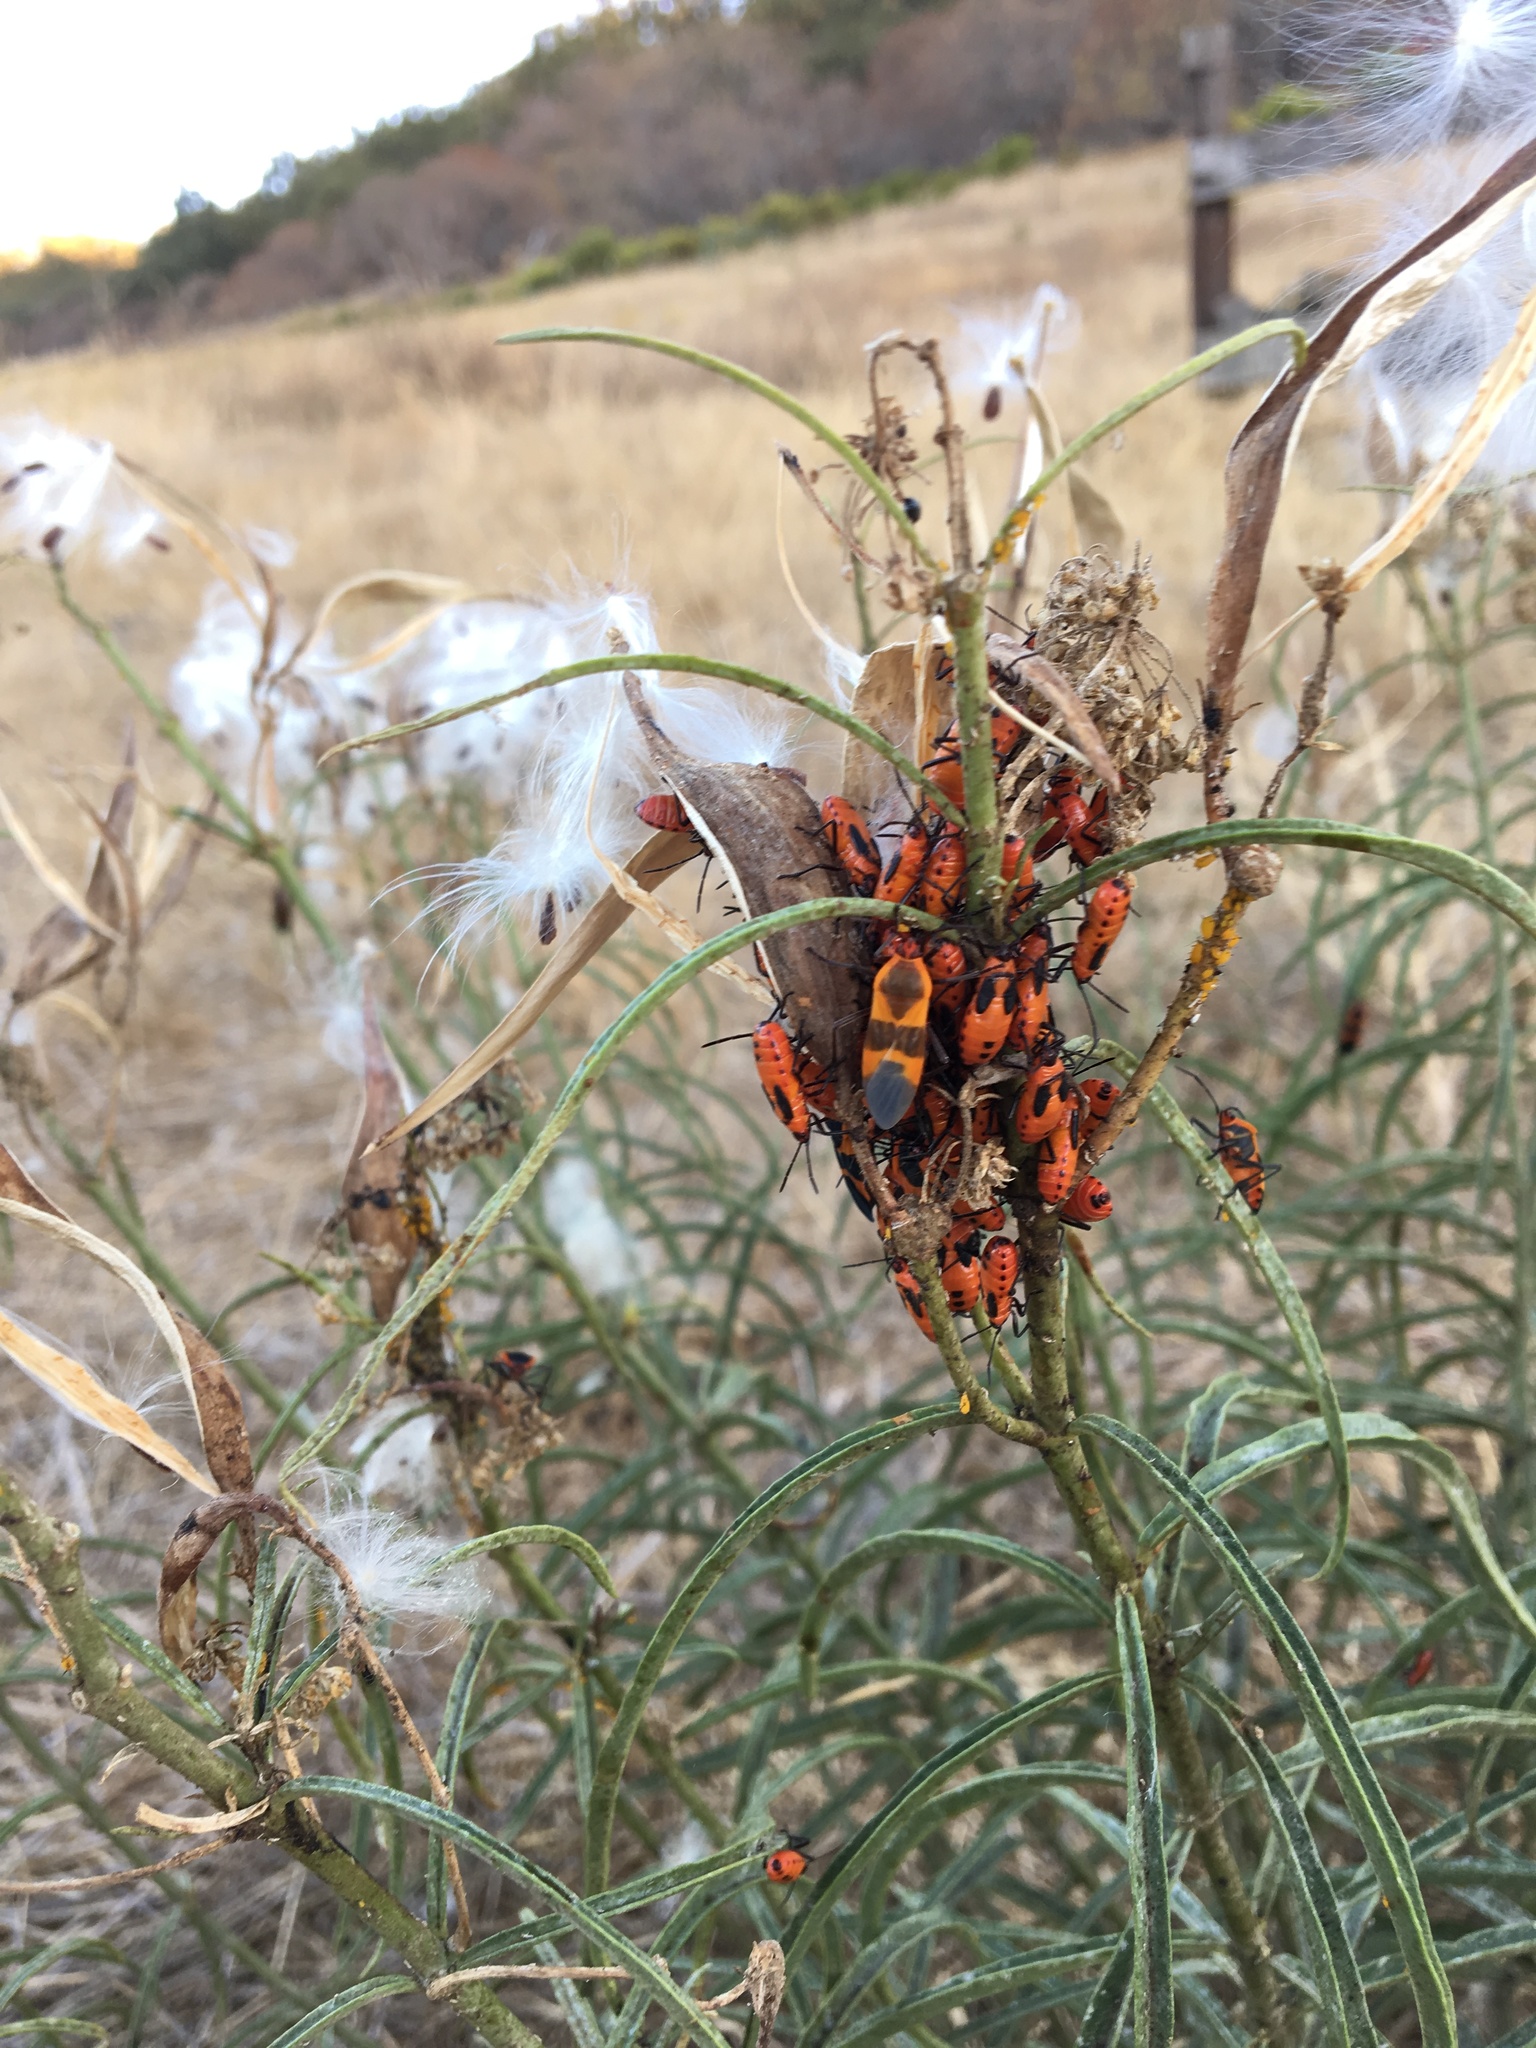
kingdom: Animalia
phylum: Arthropoda
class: Insecta
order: Hemiptera
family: Lygaeidae
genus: Oncopeltus
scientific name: Oncopeltus fasciatus
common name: Large milkweed bug
